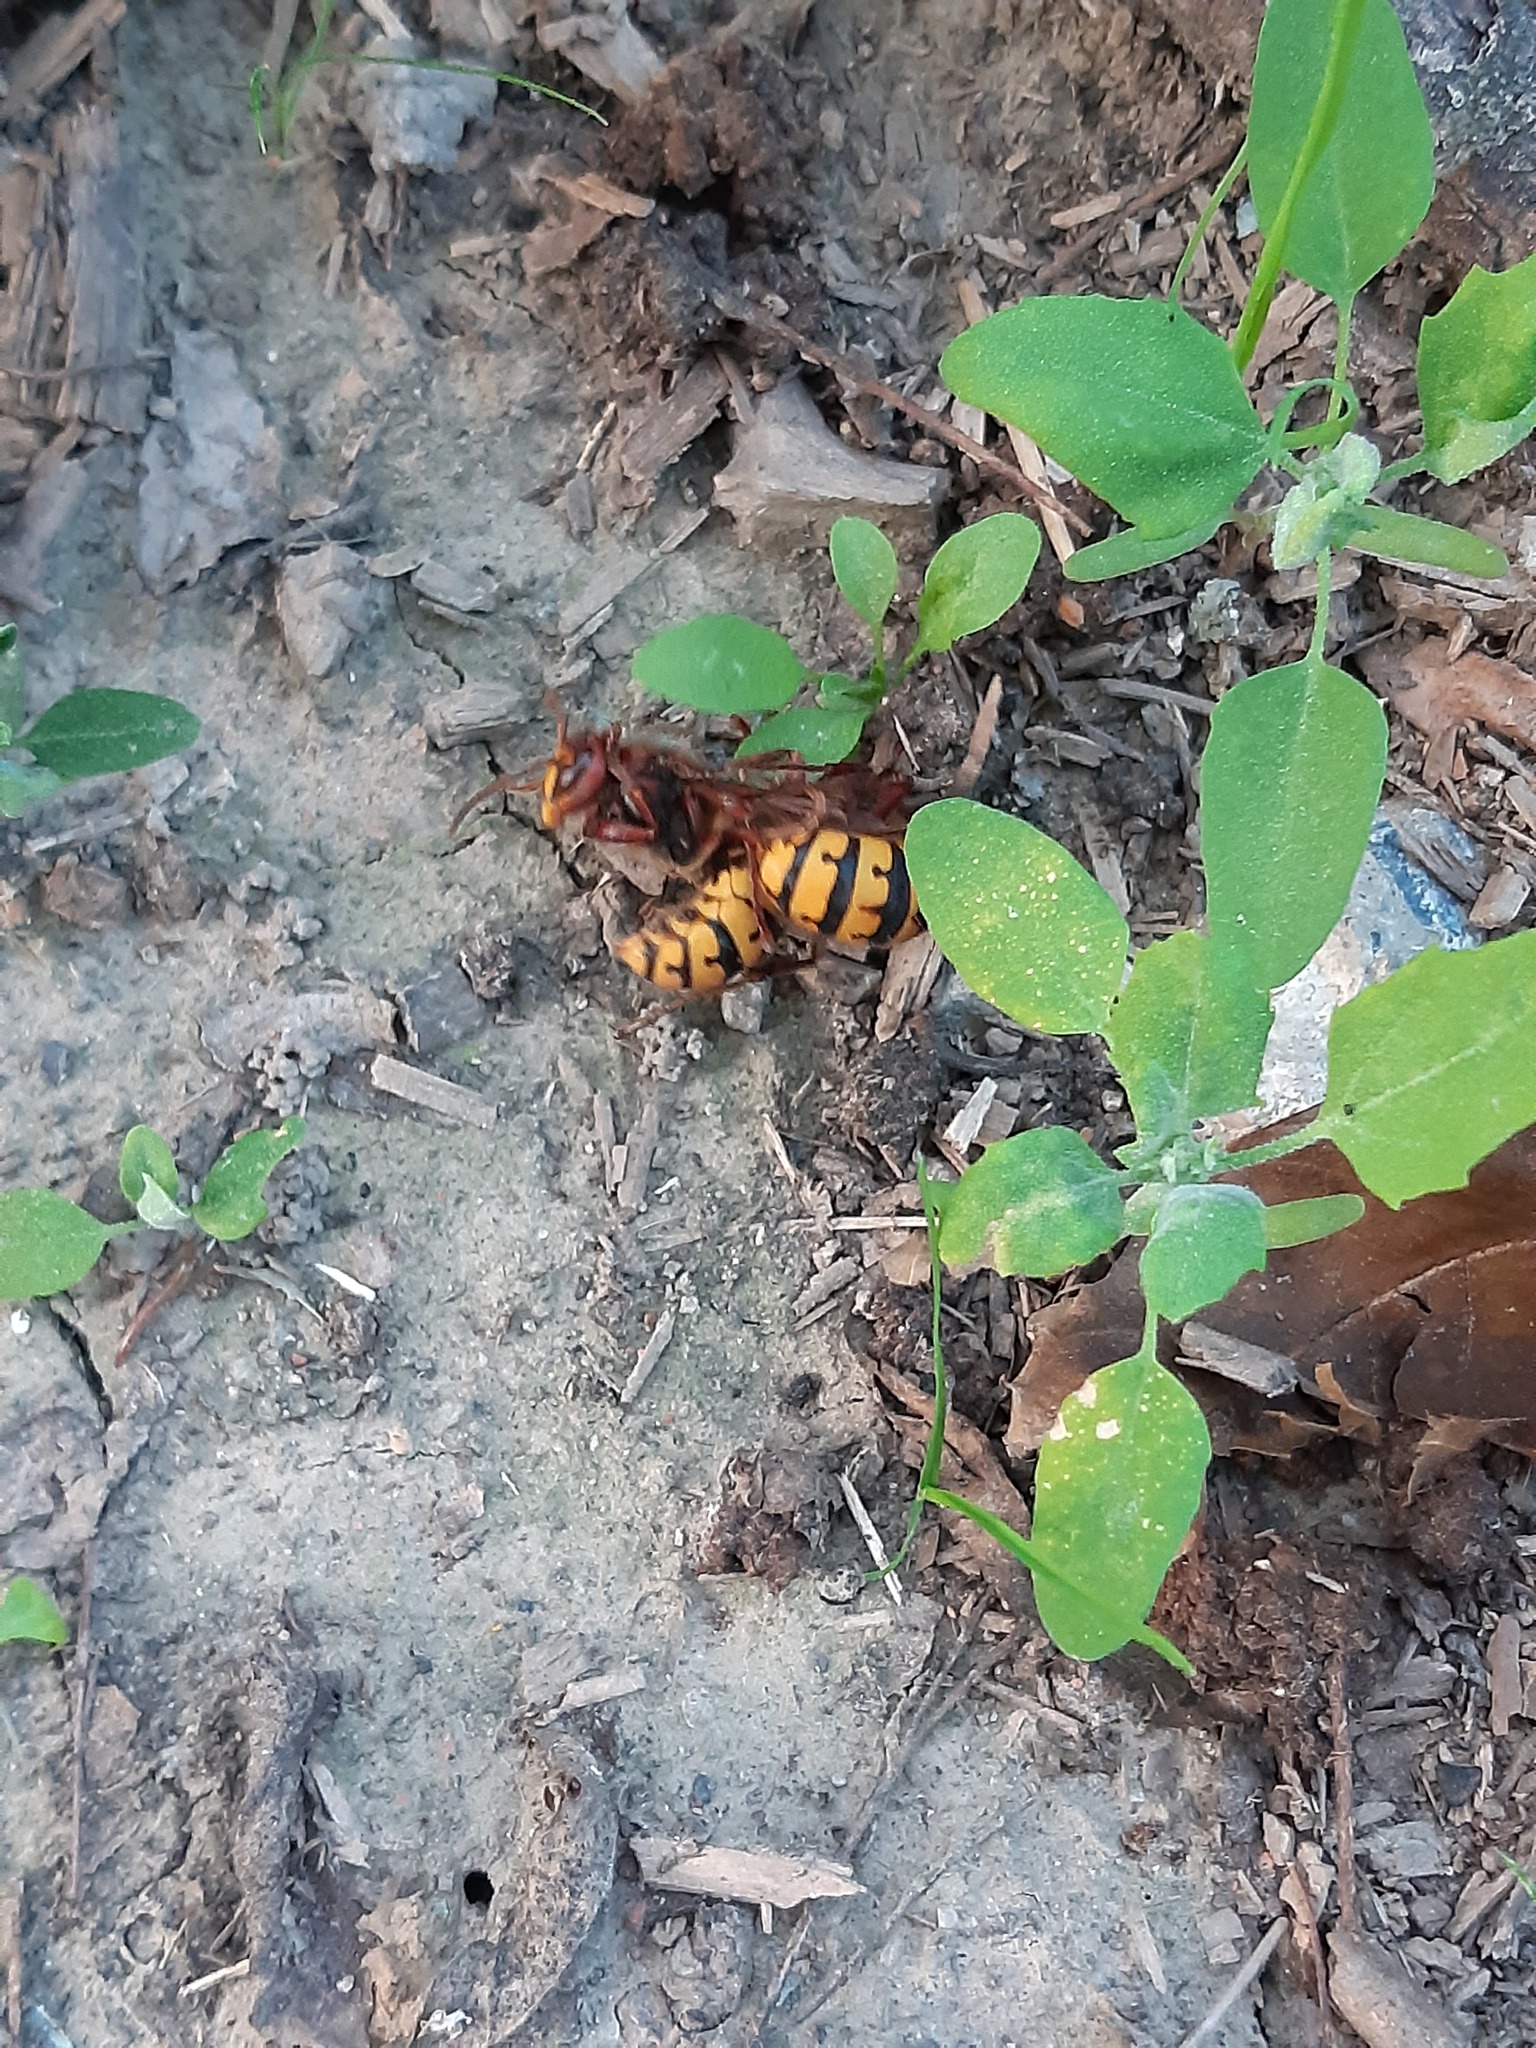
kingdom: Animalia
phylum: Arthropoda
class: Insecta
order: Hymenoptera
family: Vespidae
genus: Vespa
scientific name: Vespa crabro
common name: Hornet
